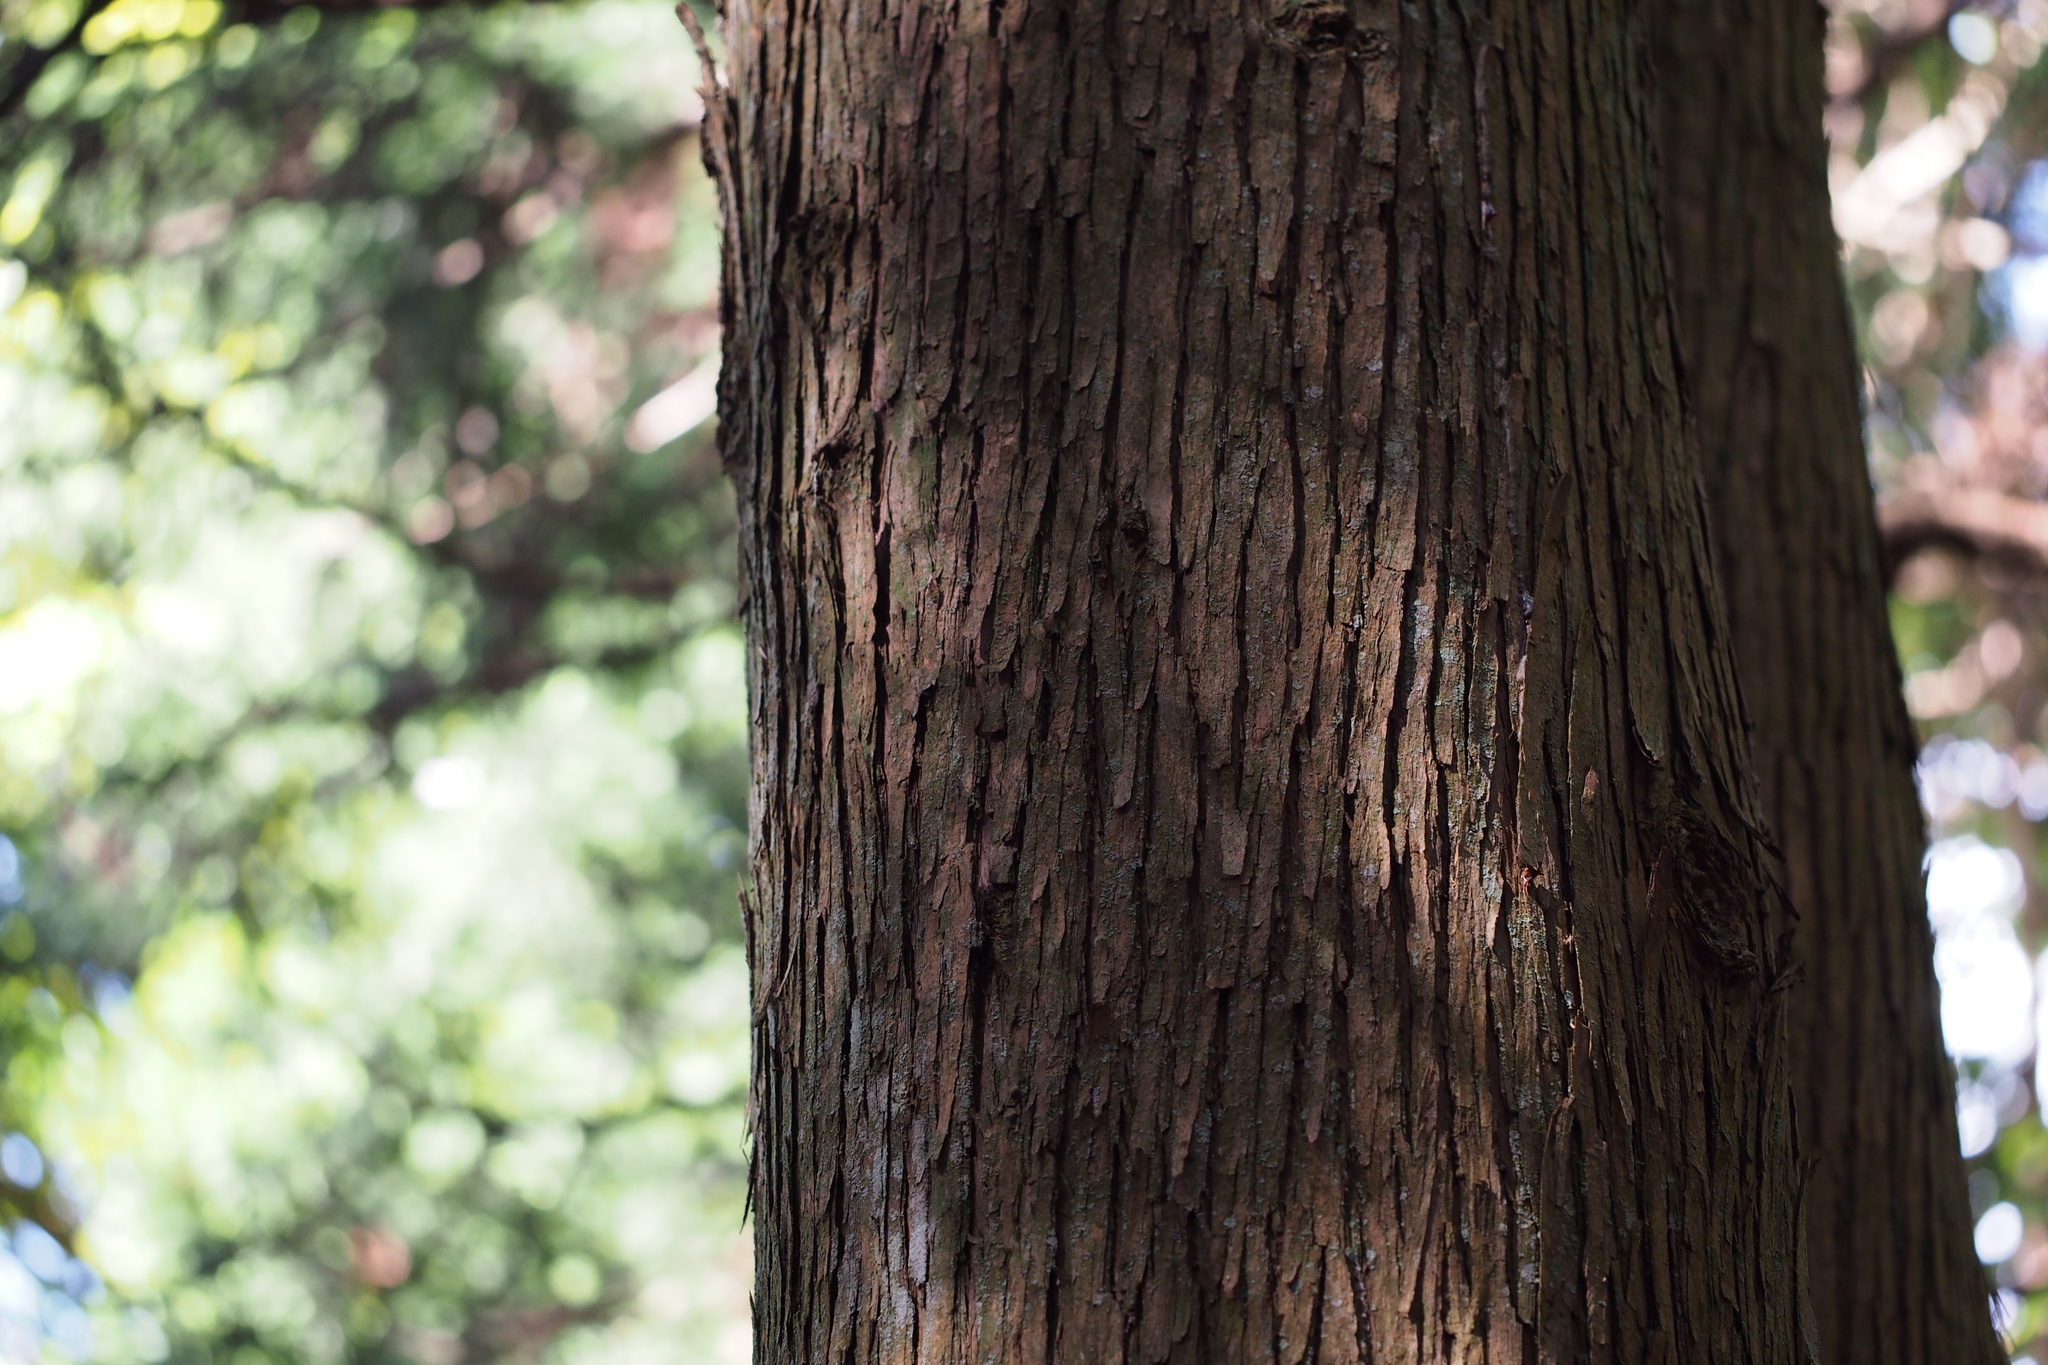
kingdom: Plantae
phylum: Tracheophyta
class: Pinopsida
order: Pinales
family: Cupressaceae
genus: Cryptomeria
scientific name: Cryptomeria japonica
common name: Japanese cedar
